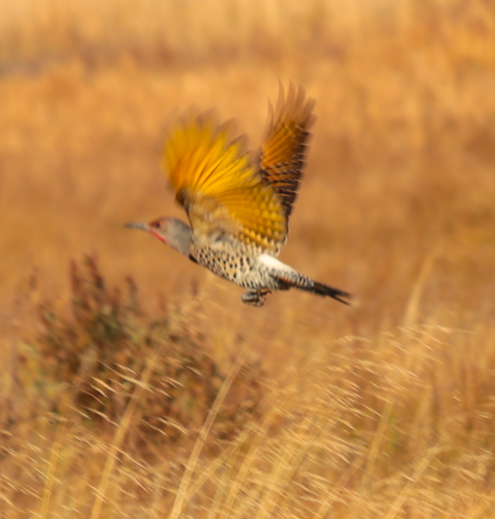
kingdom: Animalia
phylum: Chordata
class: Aves
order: Piciformes
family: Picidae
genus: Colaptes
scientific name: Colaptes
